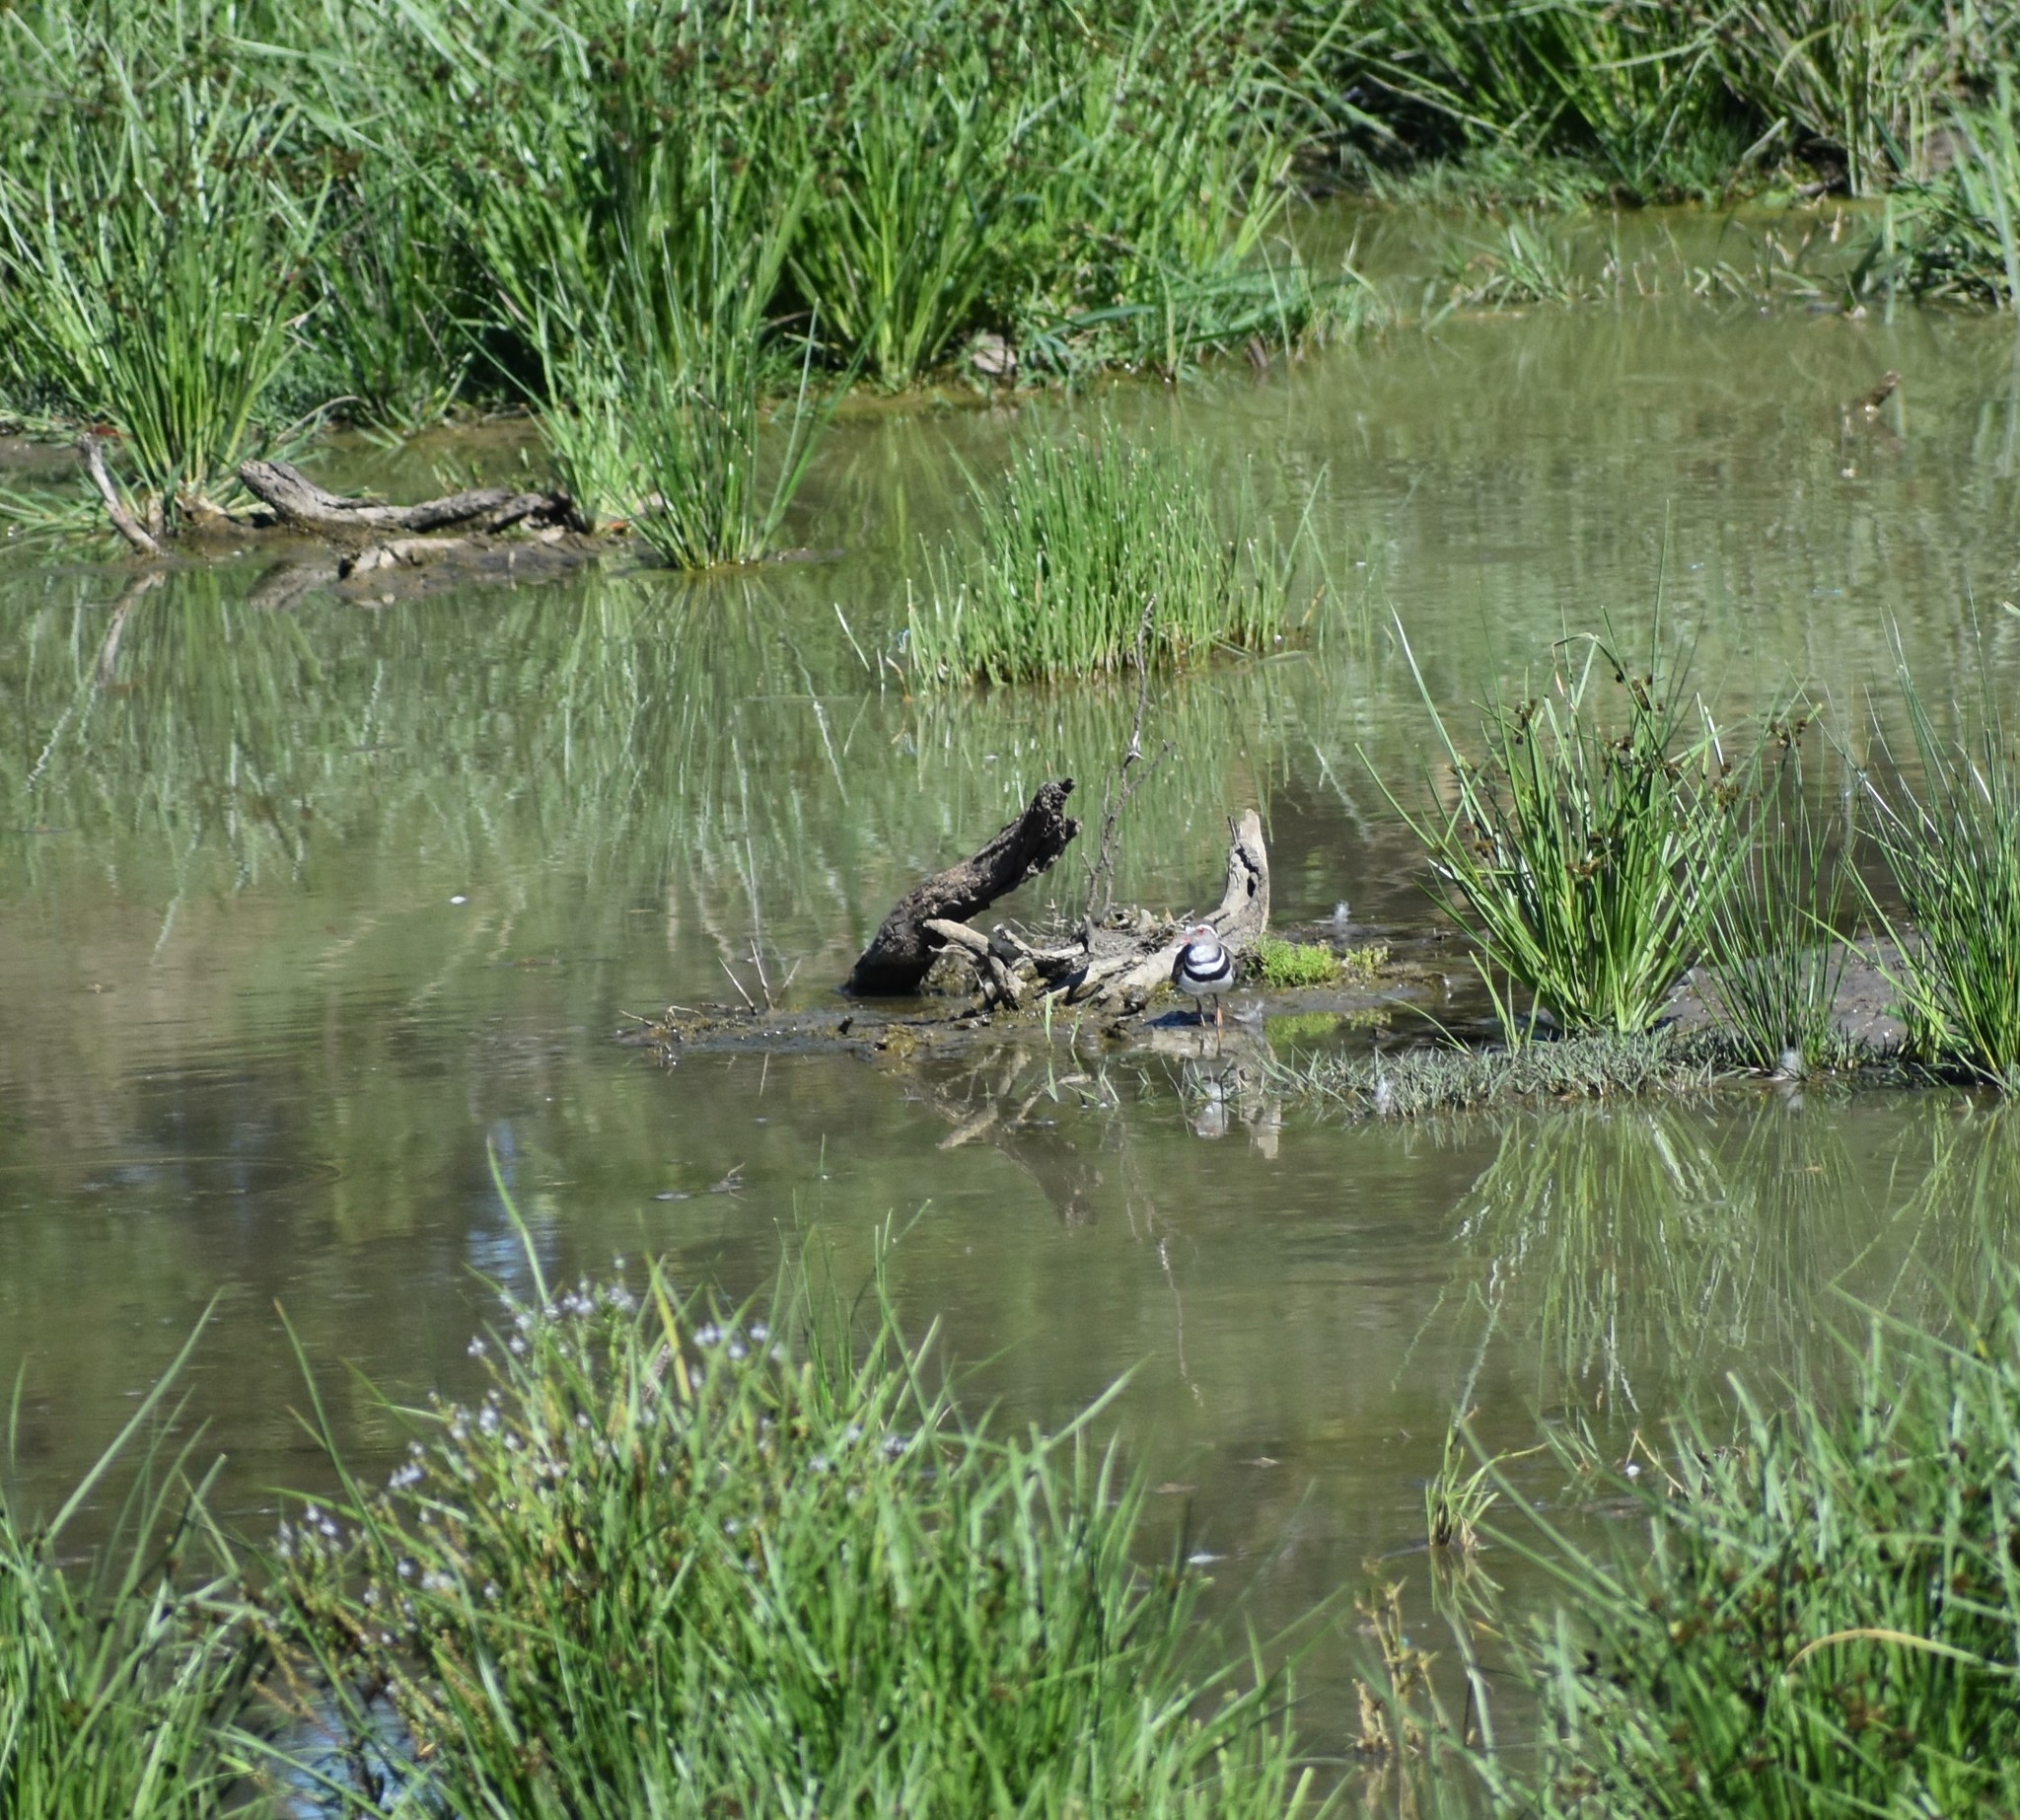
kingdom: Animalia
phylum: Chordata
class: Aves
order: Charadriiformes
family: Charadriidae
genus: Charadrius
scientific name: Charadrius tricollaris
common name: Three-banded plover
